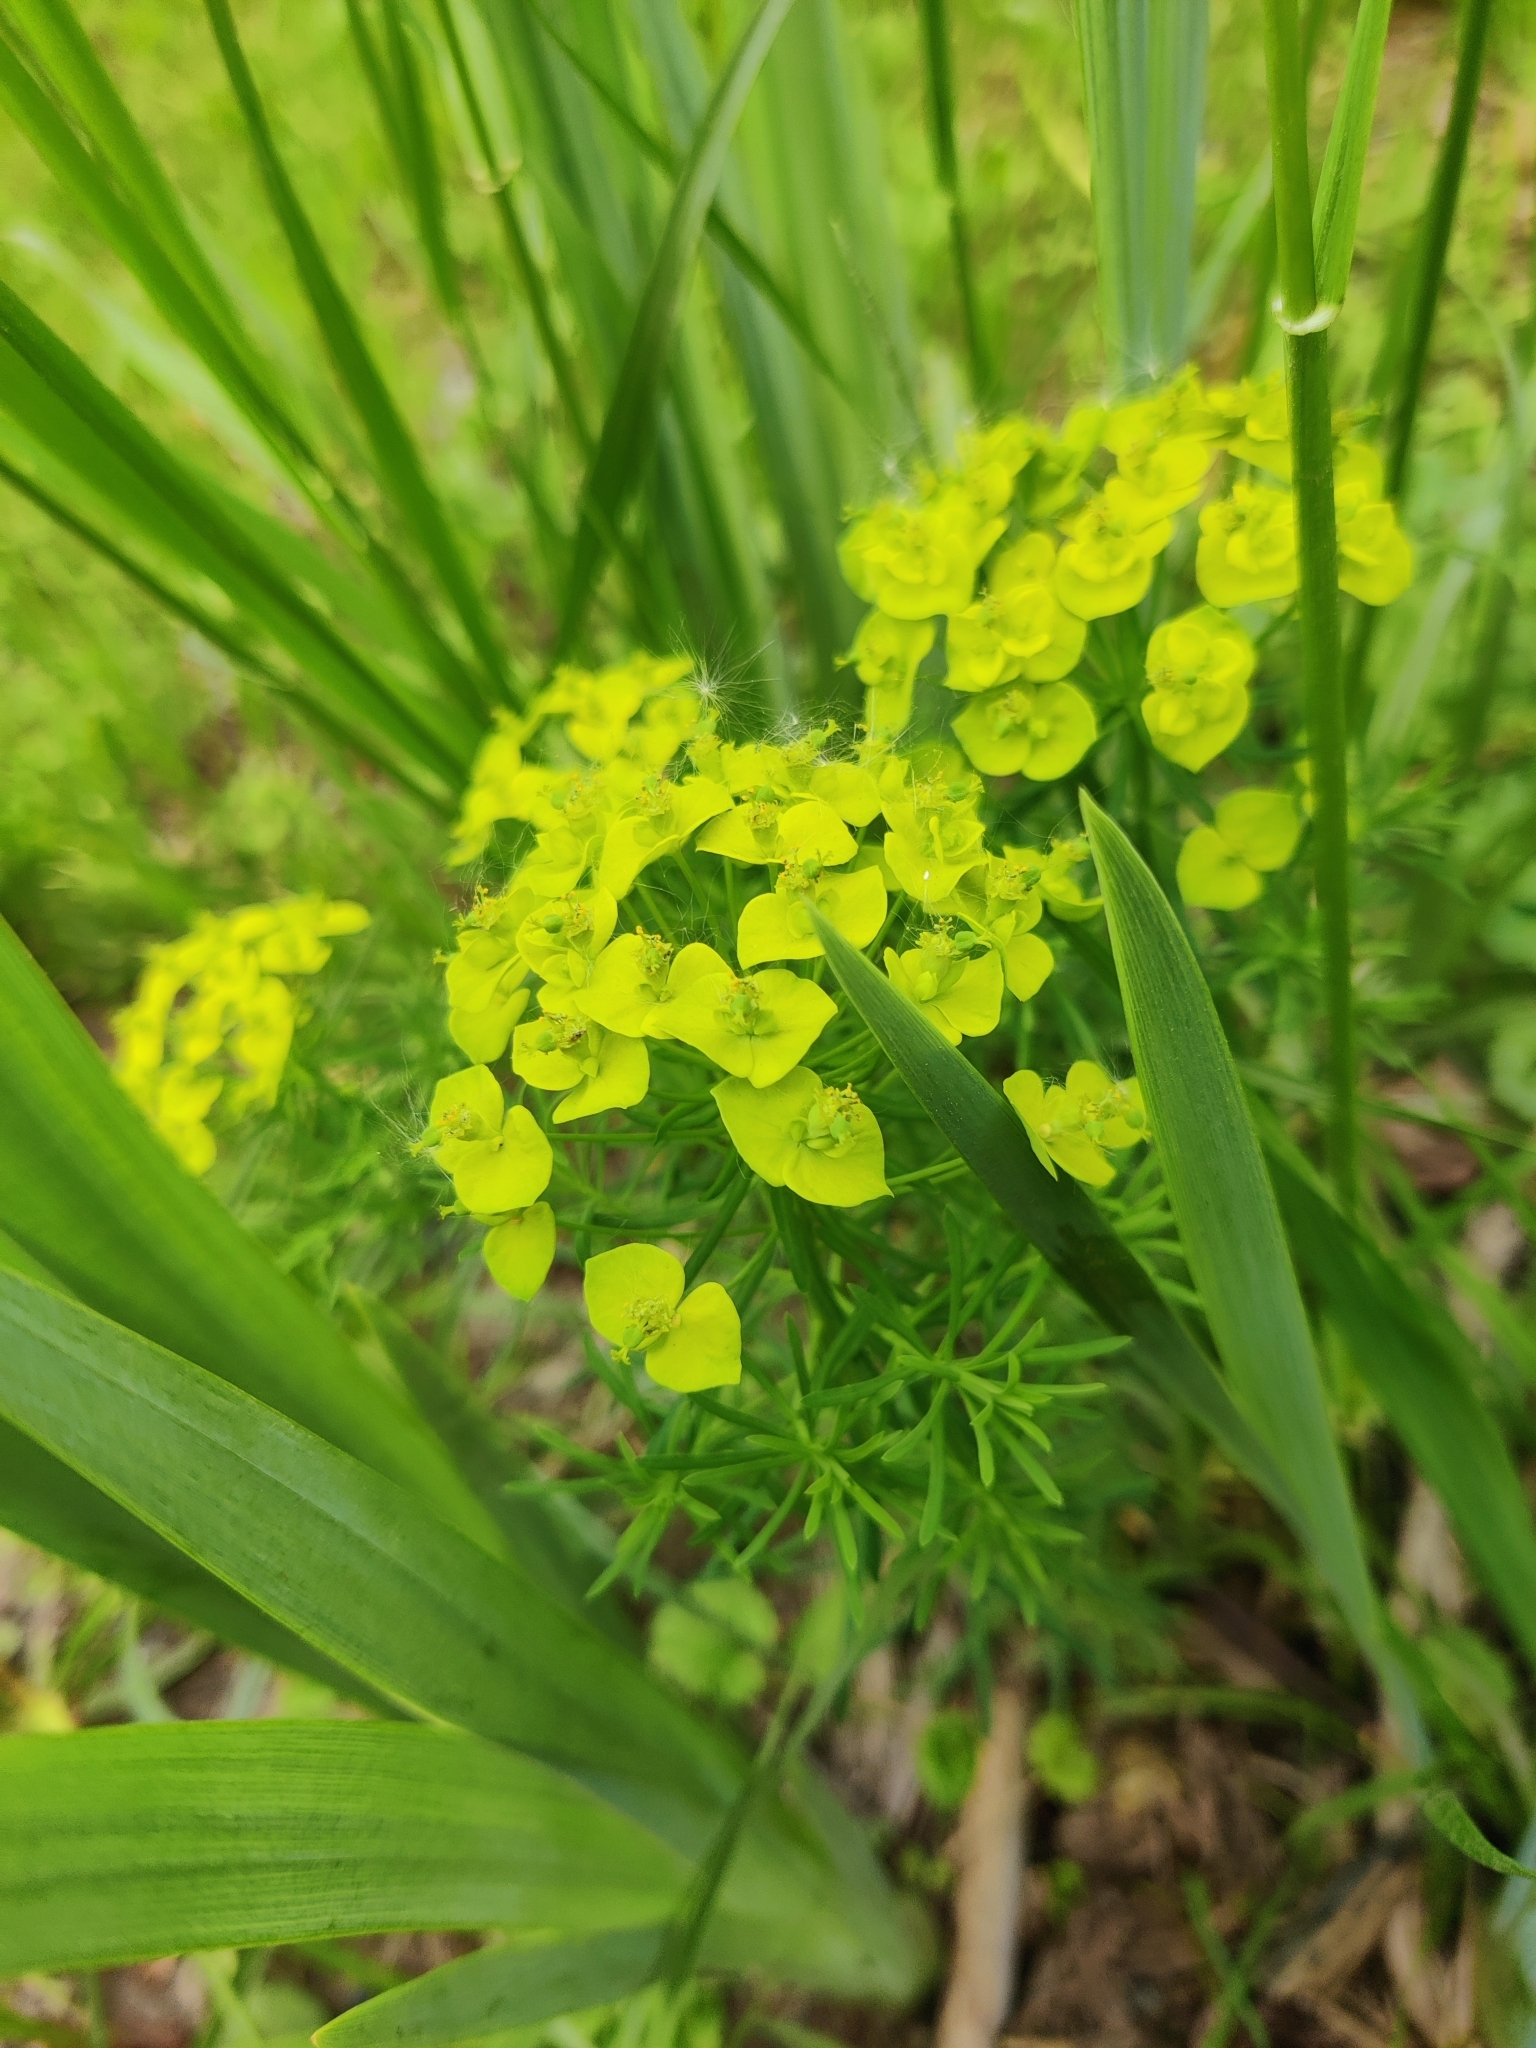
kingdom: Plantae
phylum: Tracheophyta
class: Magnoliopsida
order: Malpighiales
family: Euphorbiaceae
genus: Euphorbia
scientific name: Euphorbia cyparissias
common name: Cypress spurge
